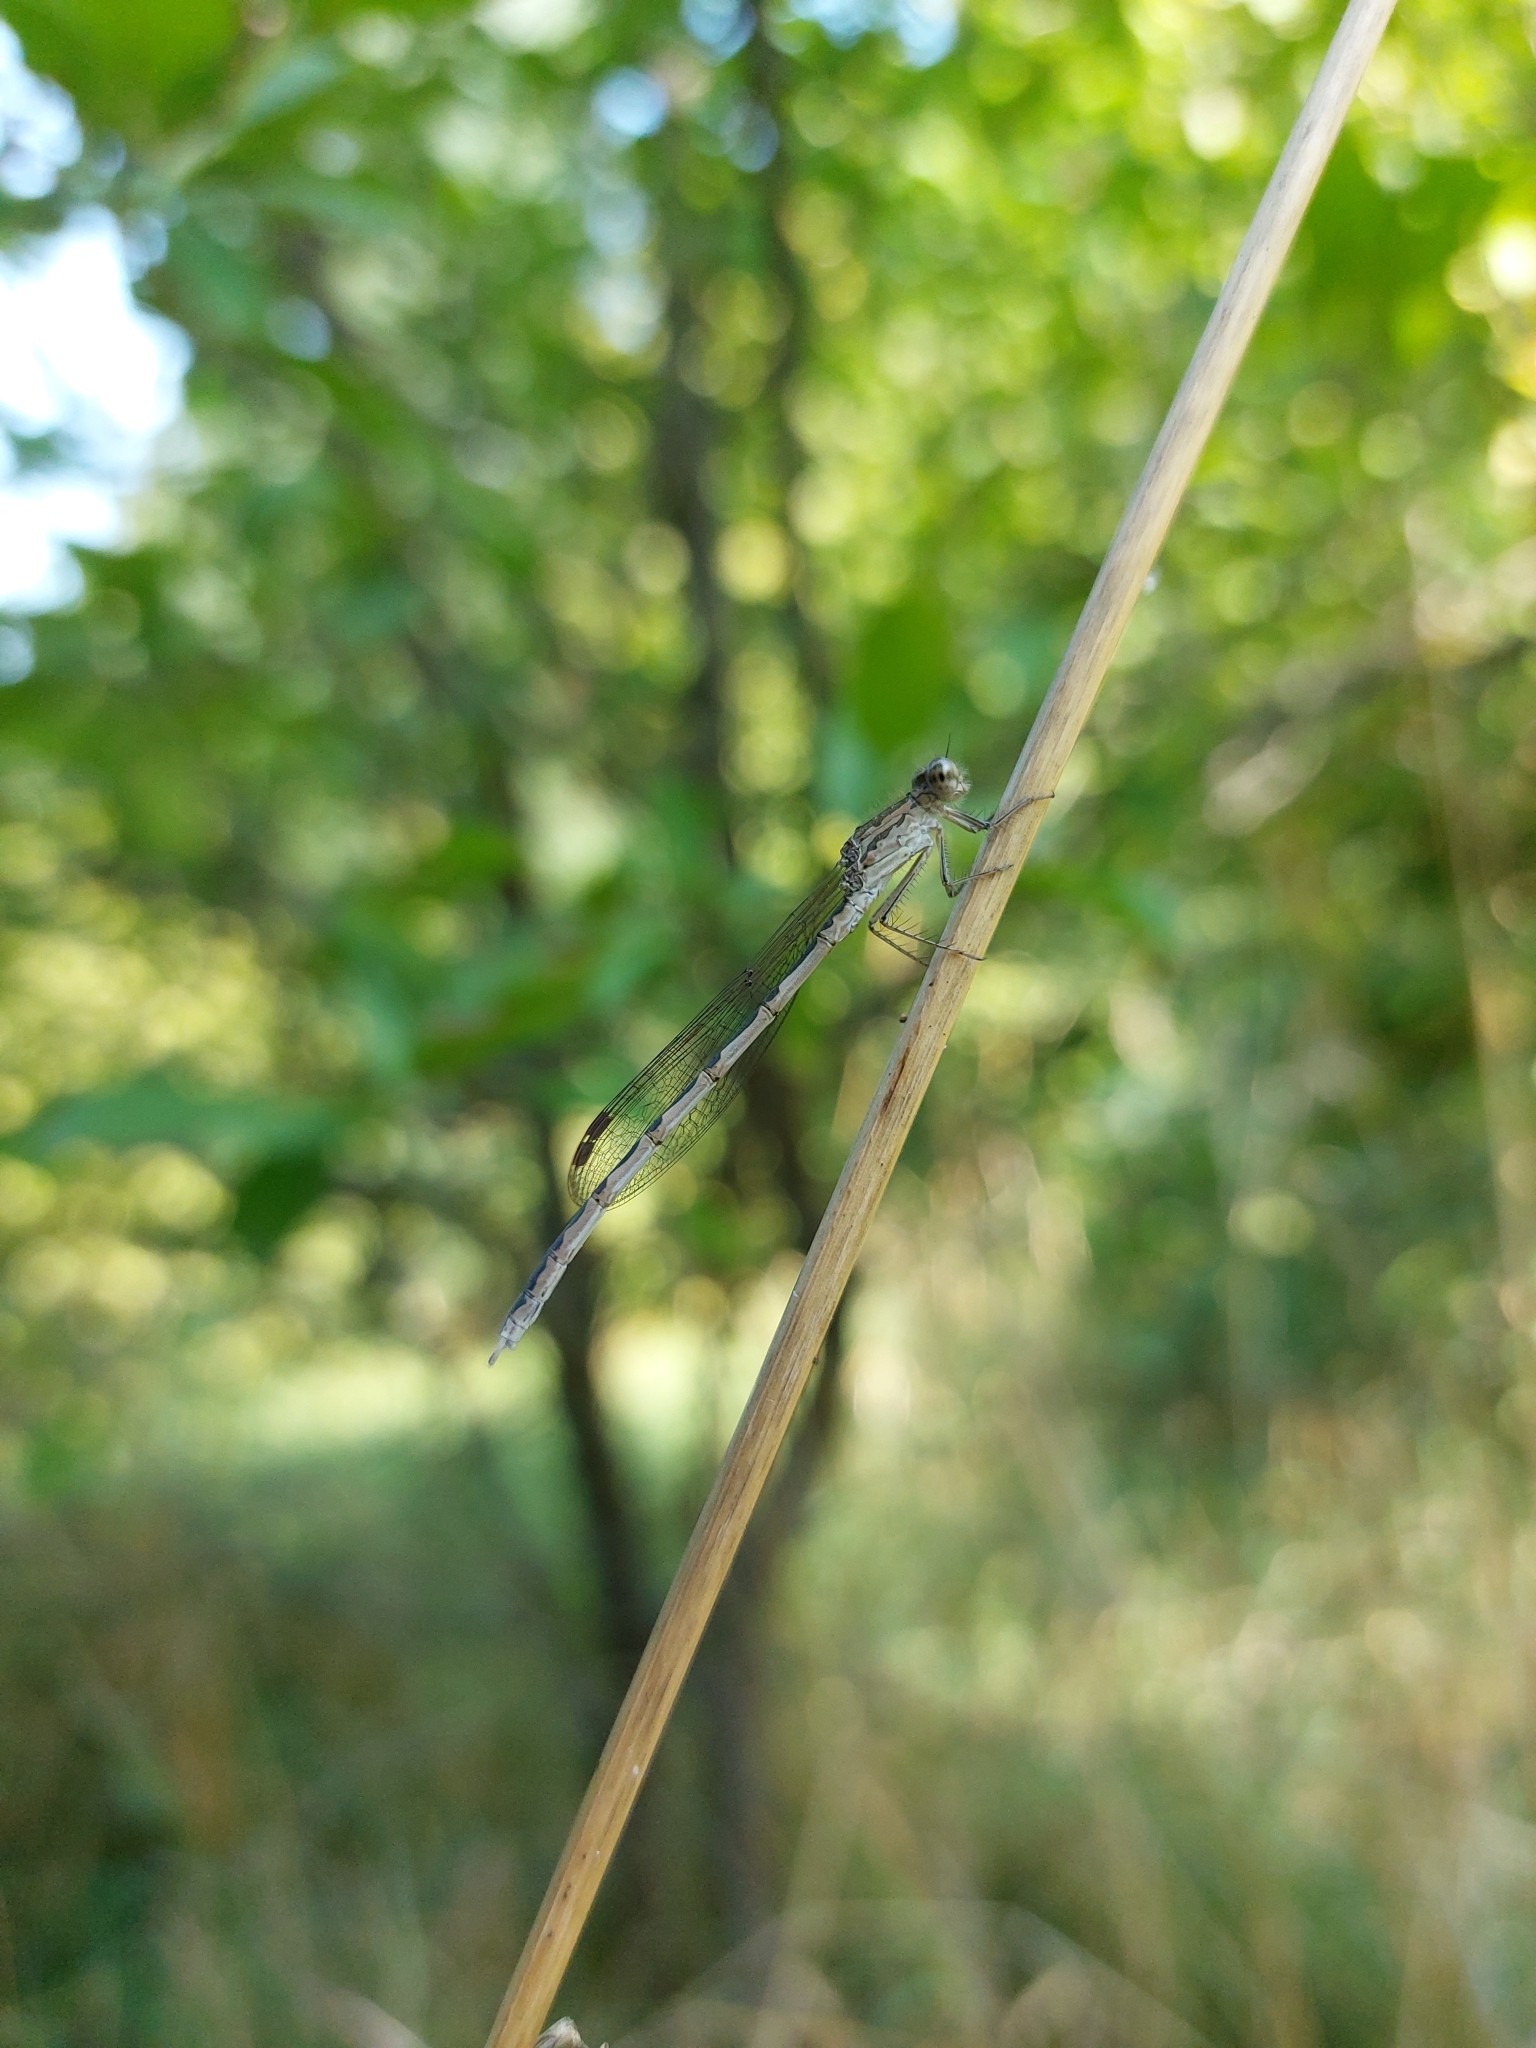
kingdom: Animalia
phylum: Arthropoda
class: Insecta
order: Odonata
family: Lestidae
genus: Sympecma
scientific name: Sympecma paedisca
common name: Siberian winter damsel
